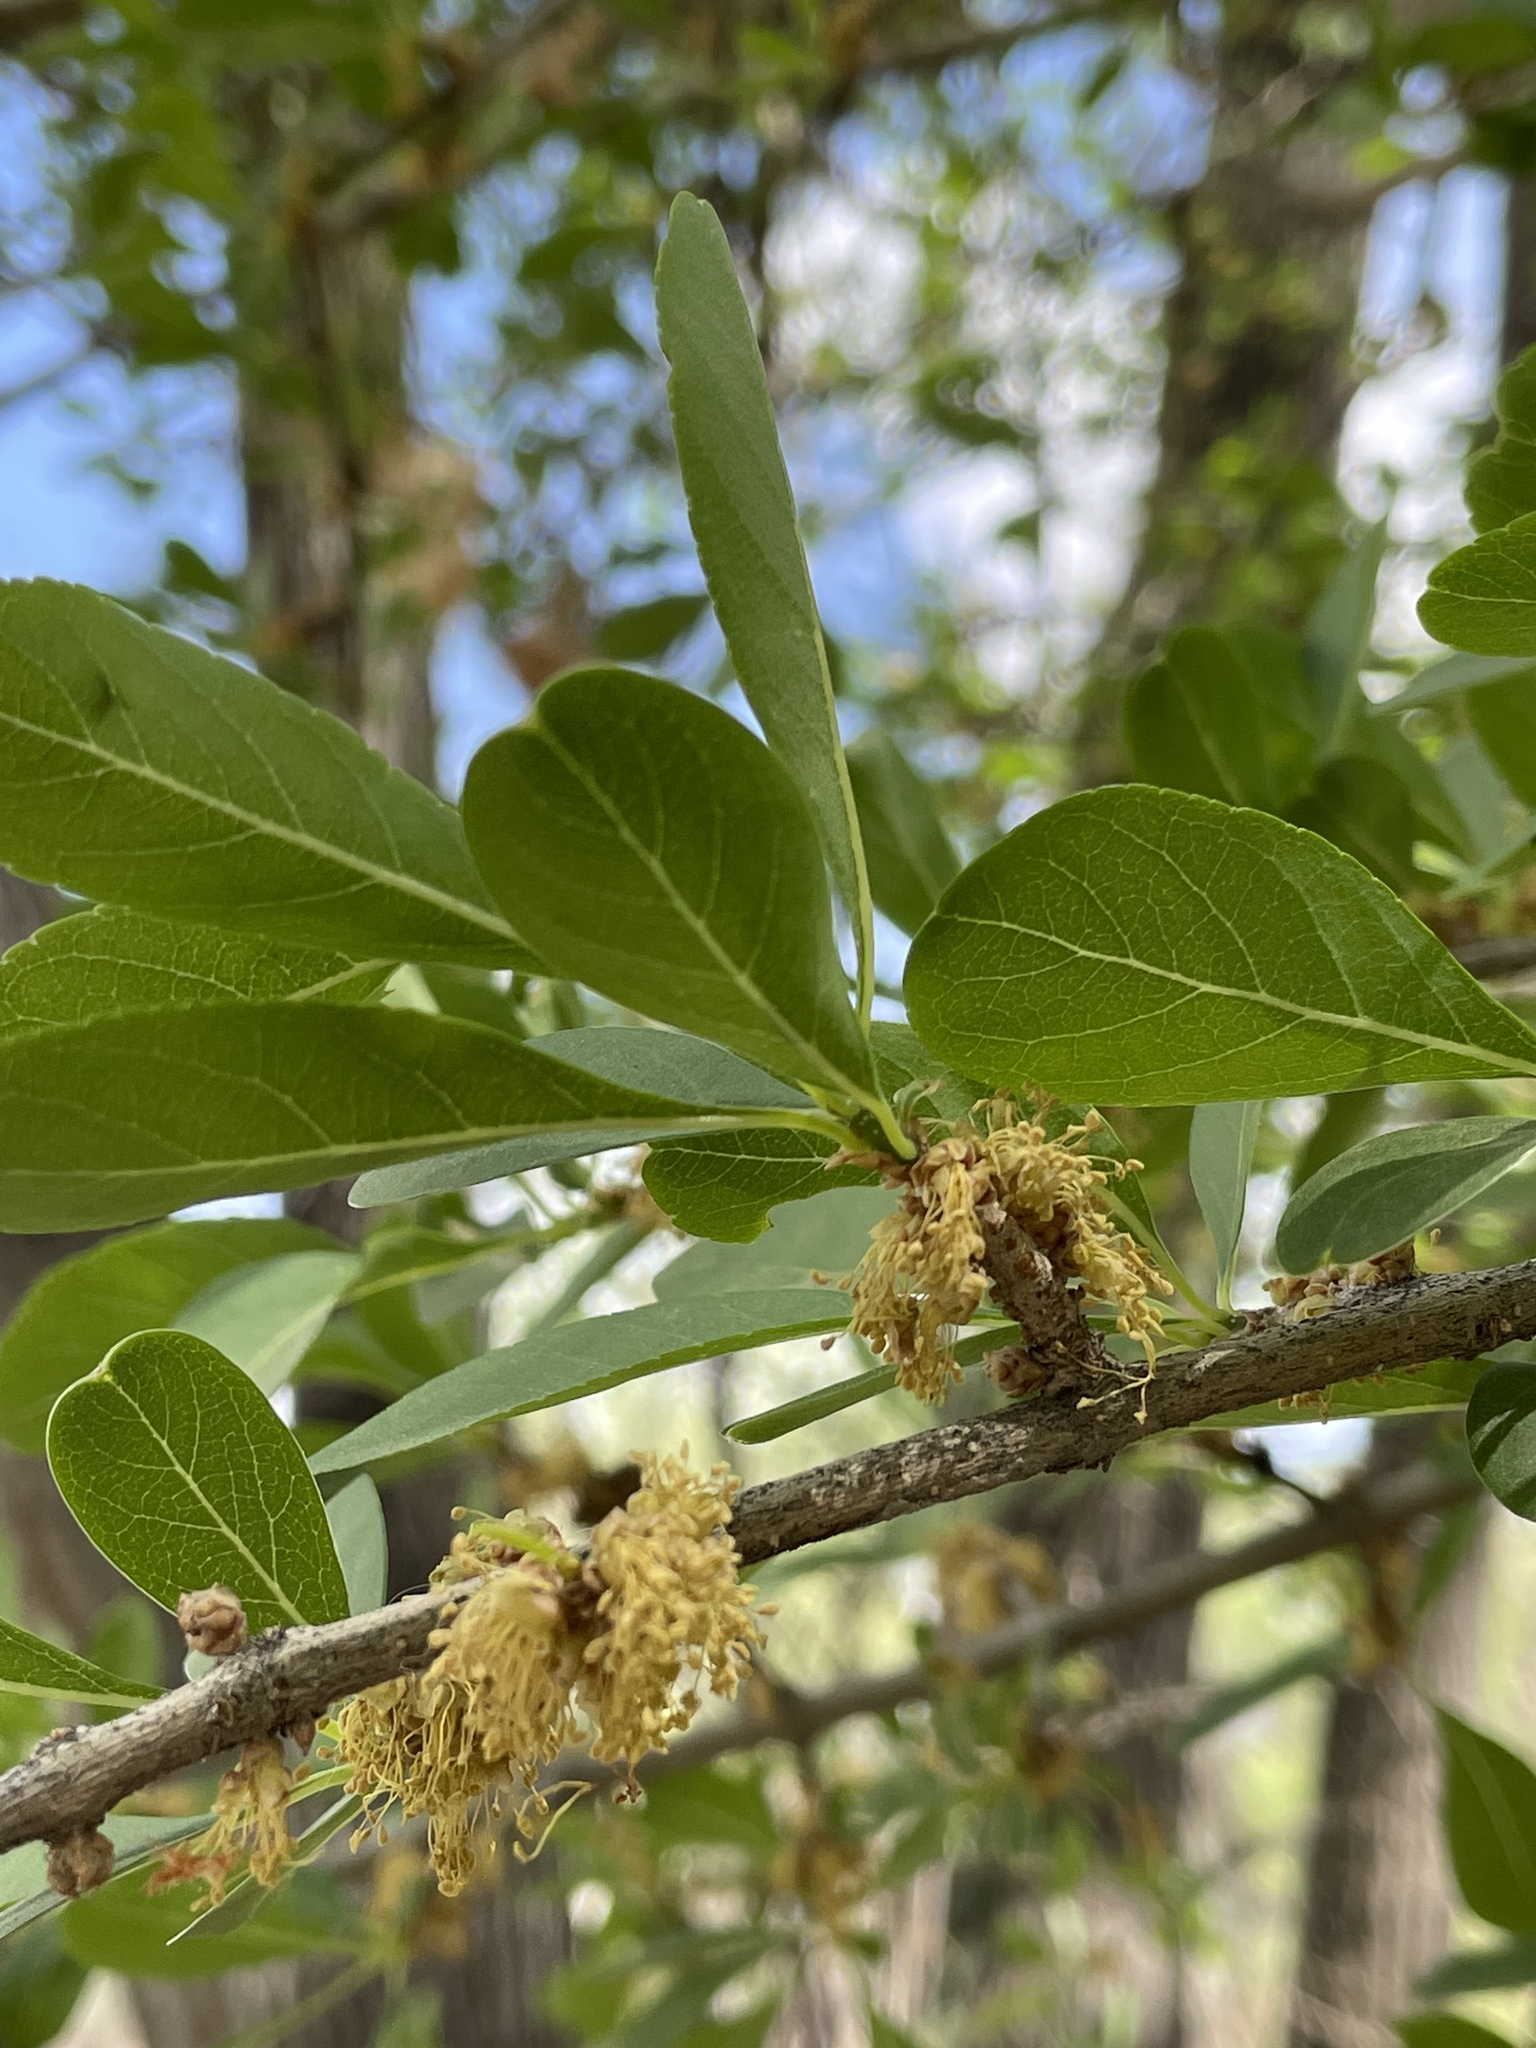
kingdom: Plantae
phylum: Tracheophyta
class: Magnoliopsida
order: Lamiales
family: Oleaceae
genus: Forestiera
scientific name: Forestiera pubescens
